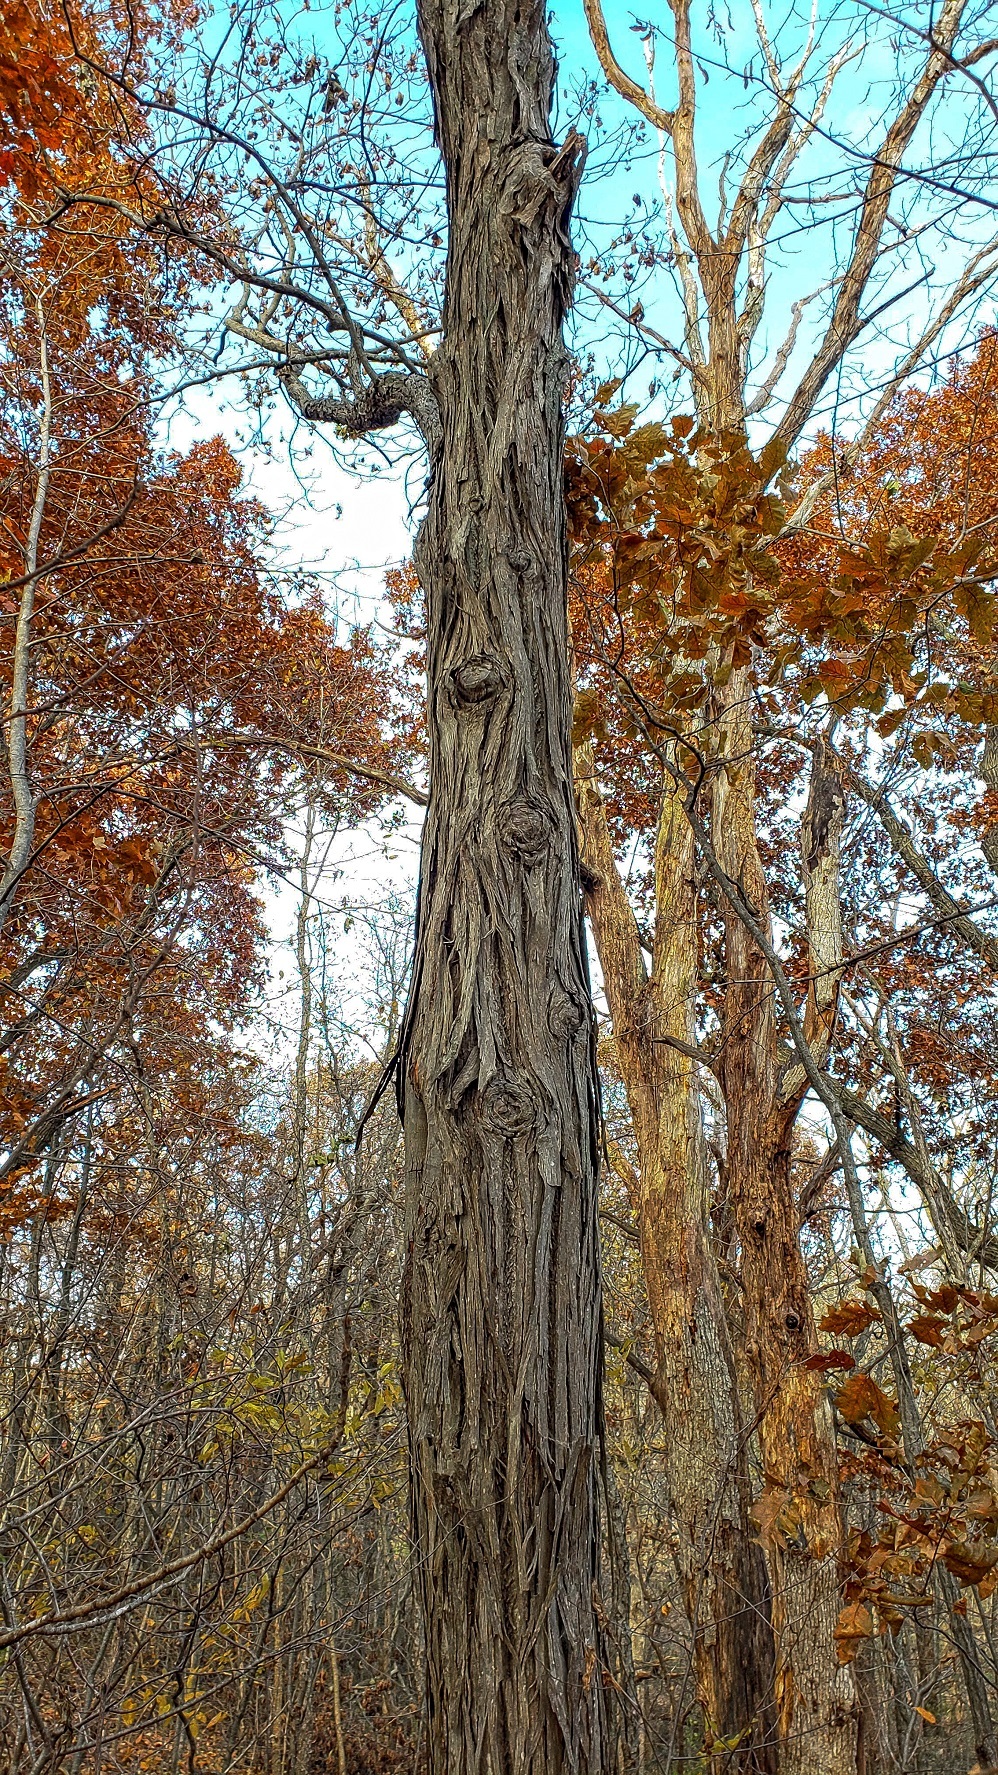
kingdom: Plantae
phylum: Tracheophyta
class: Magnoliopsida
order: Fagales
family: Juglandaceae
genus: Carya
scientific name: Carya ovata
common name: Shagbark hickory
